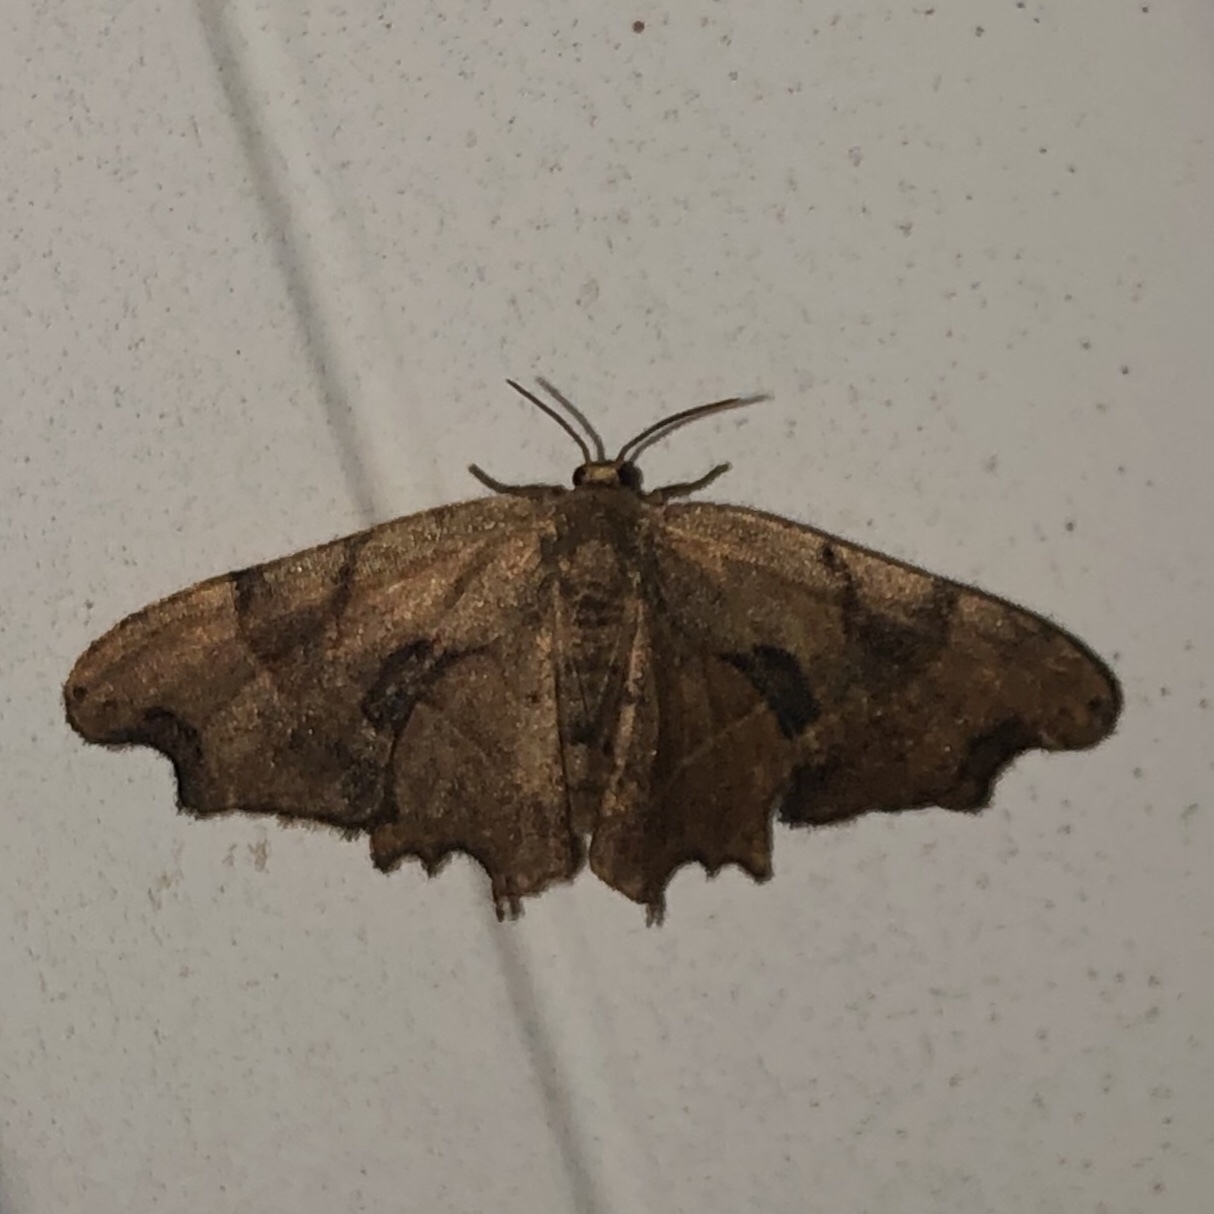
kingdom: Animalia
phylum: Arthropoda
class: Insecta
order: Lepidoptera
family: Uraniidae
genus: Epiplema
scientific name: Epiplema Calledapteryx dryopterata
